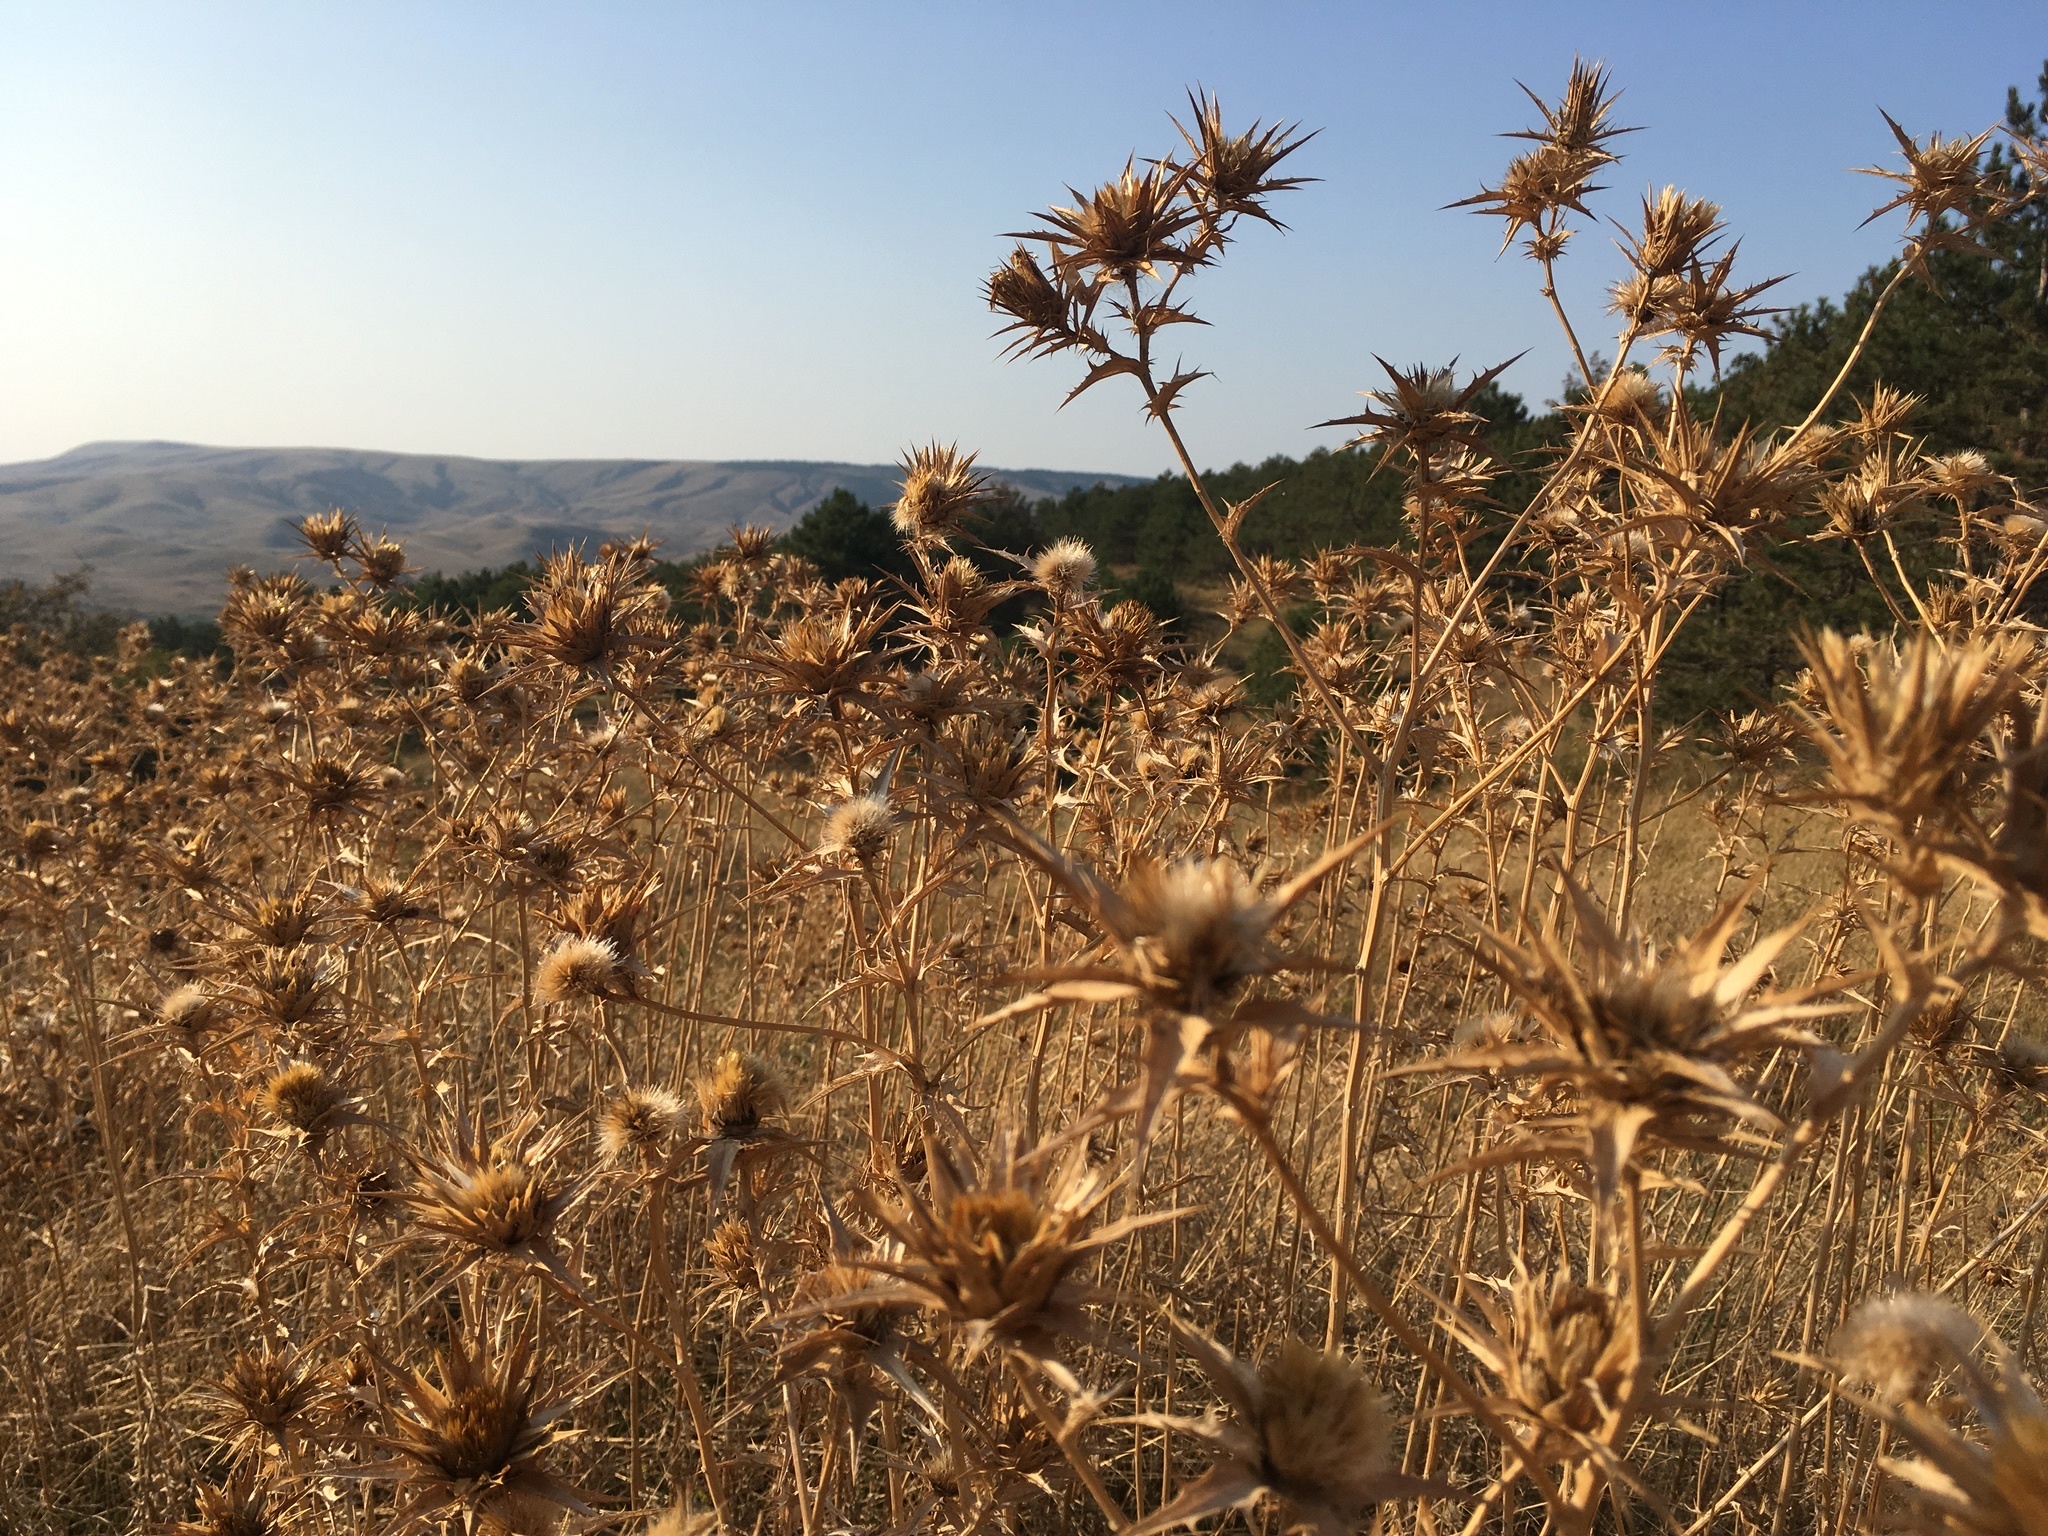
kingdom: Plantae
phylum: Tracheophyta
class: Magnoliopsida
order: Asterales
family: Asteraceae
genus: Carthamus
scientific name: Carthamus lanatus
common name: Downy safflower
